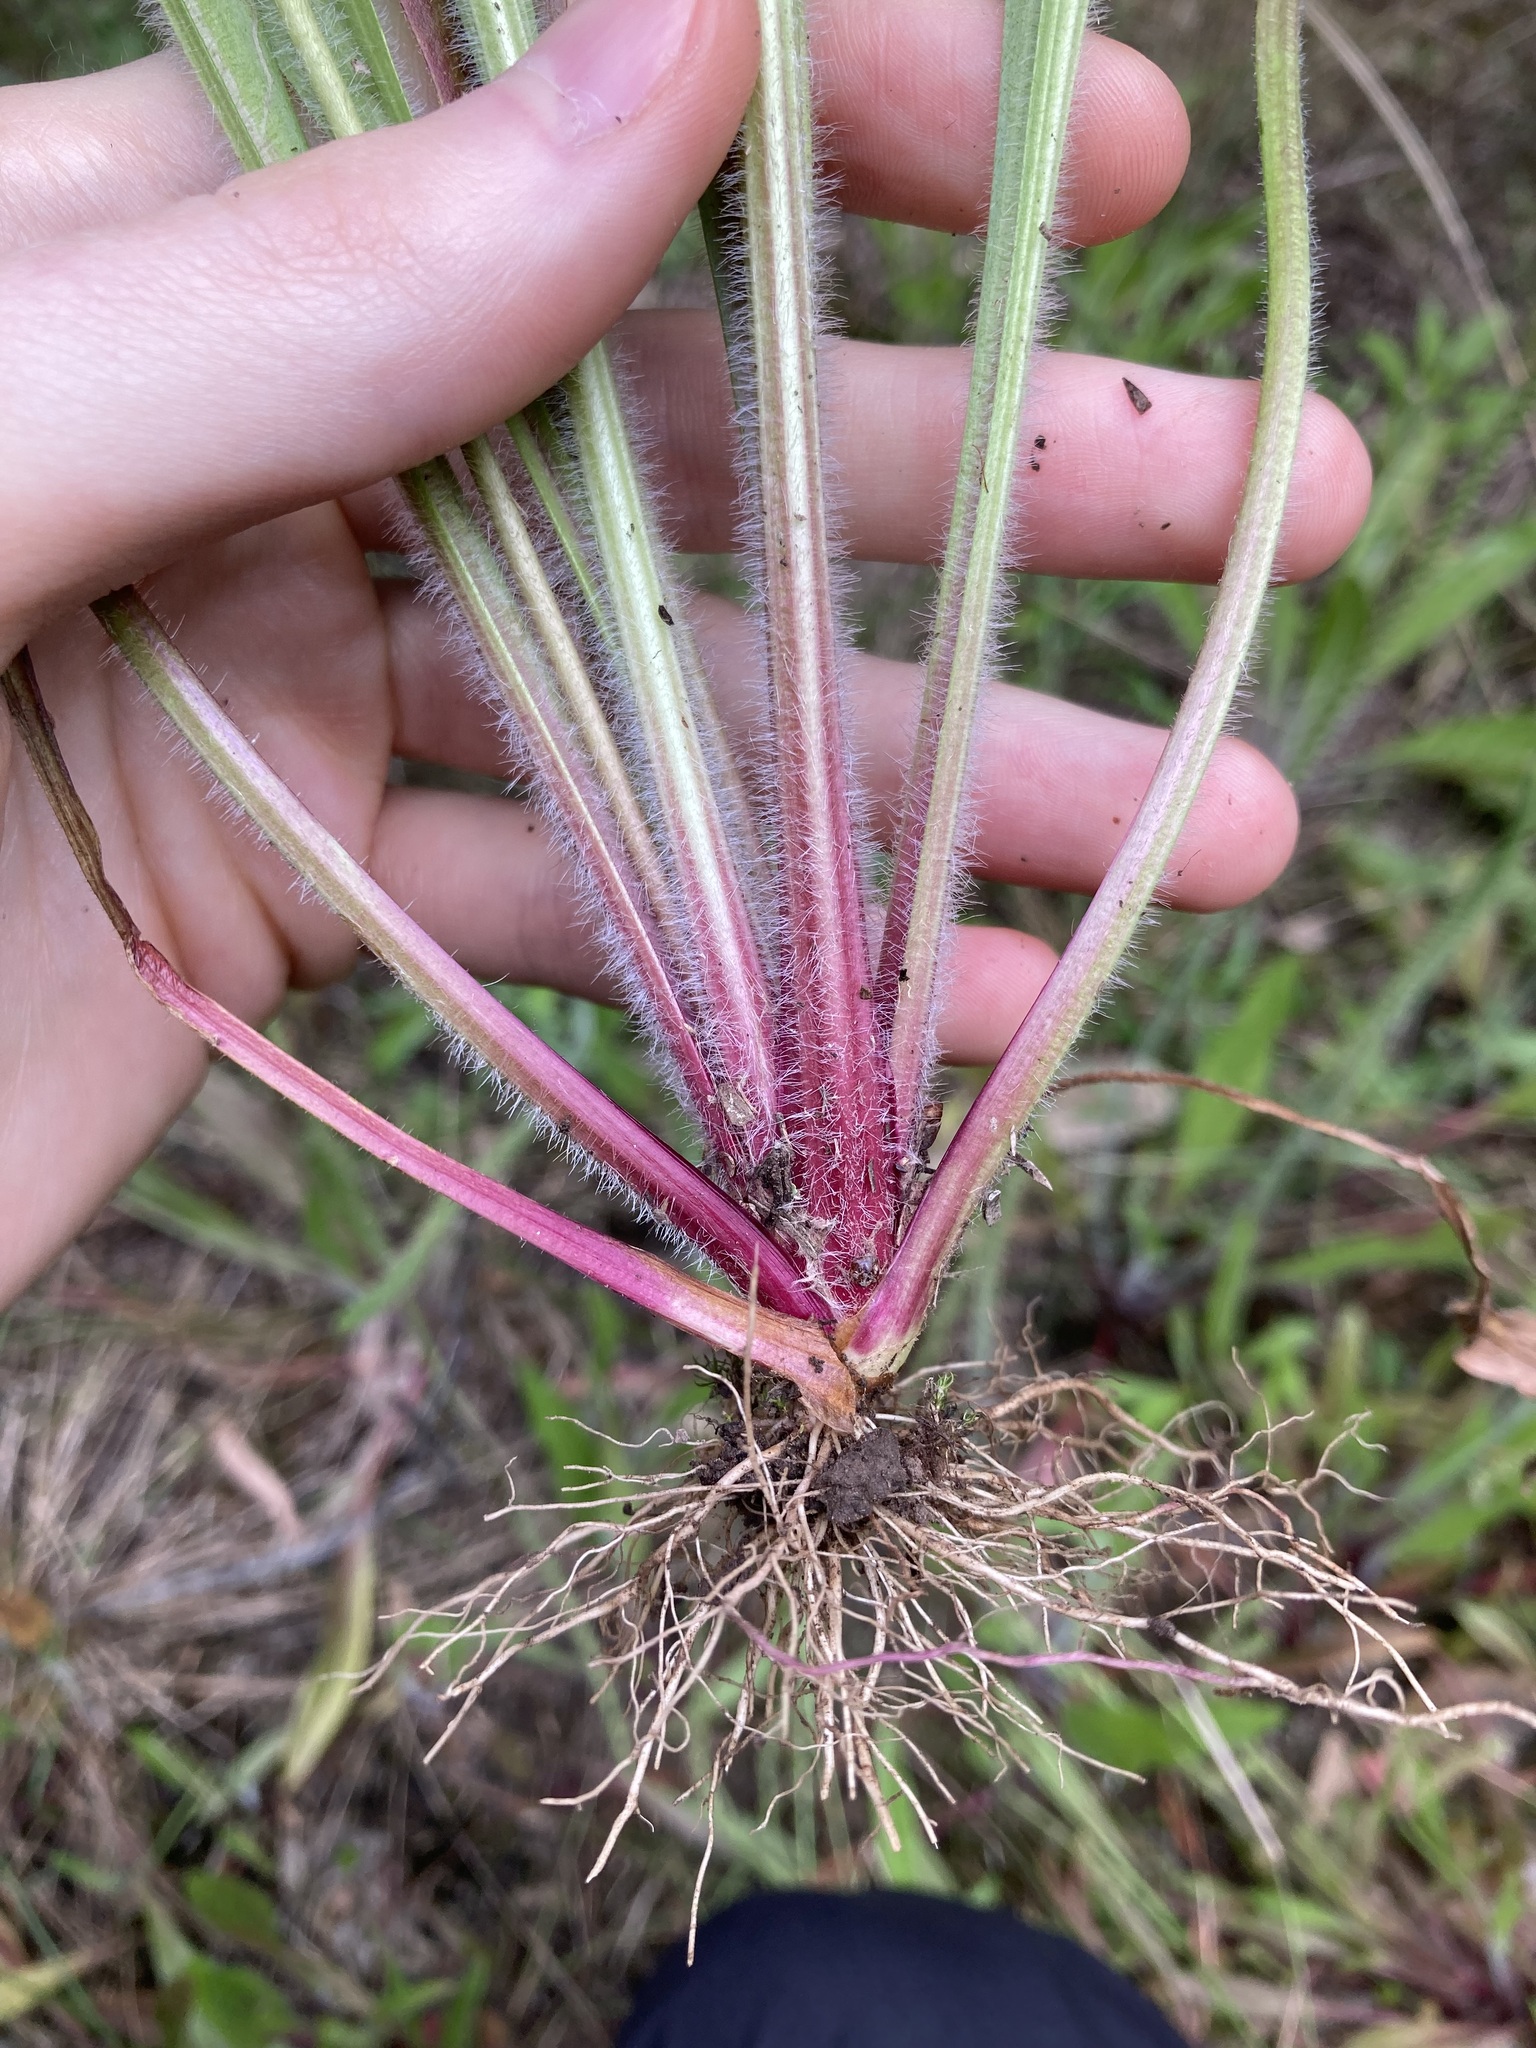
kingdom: Plantae
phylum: Tracheophyta
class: Magnoliopsida
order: Lamiales
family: Plantaginaceae
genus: Plantago
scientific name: Plantago myosuros
